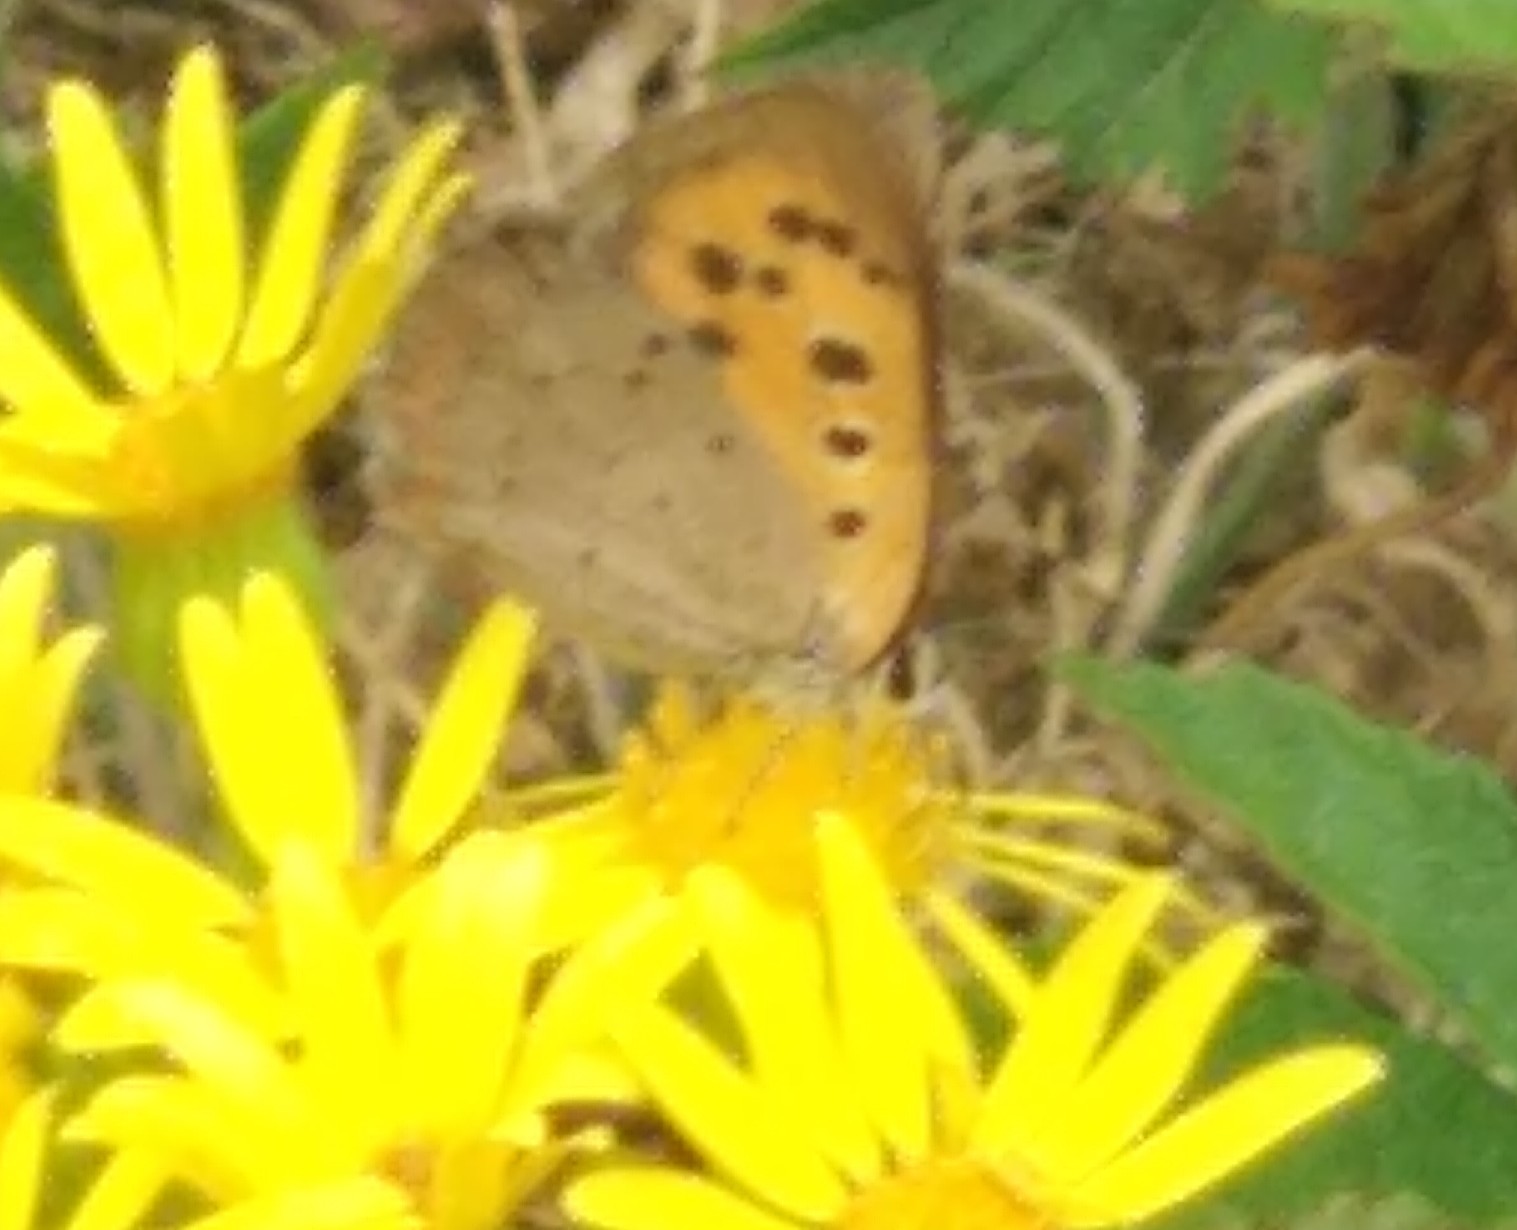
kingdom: Animalia
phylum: Arthropoda
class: Insecta
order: Lepidoptera
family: Lycaenidae
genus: Lycaena
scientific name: Lycaena phlaeas
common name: Small copper
